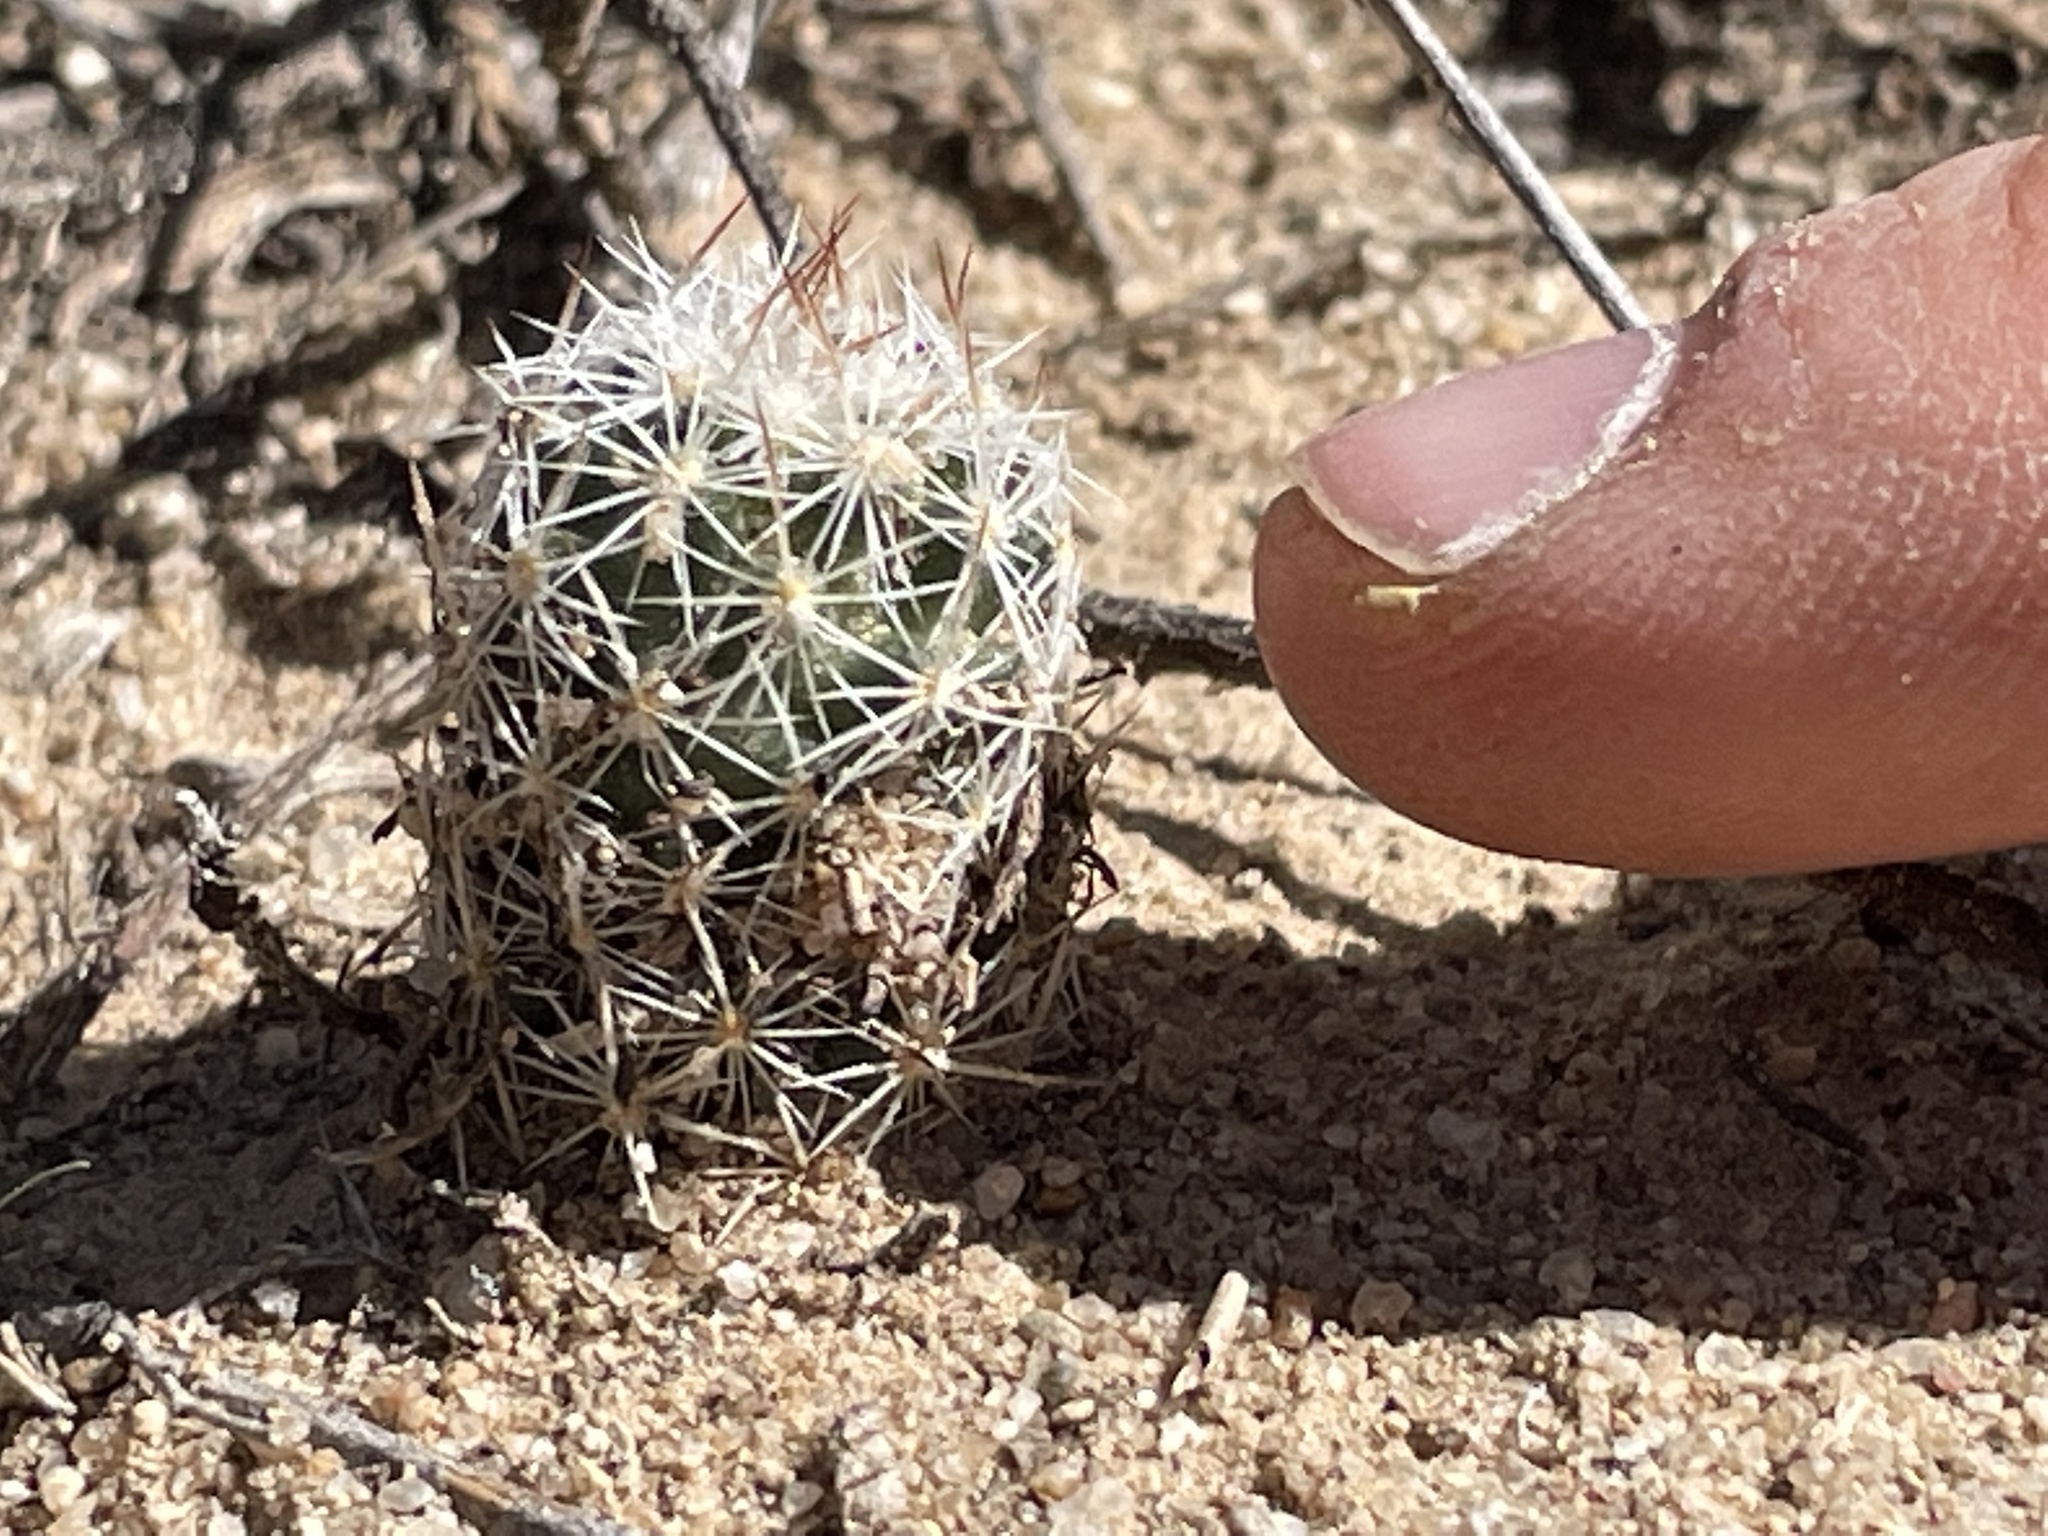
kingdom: Plantae
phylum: Tracheophyta
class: Magnoliopsida
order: Caryophyllales
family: Cactaceae
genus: Pelecyphora
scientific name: Pelecyphora vivipara
